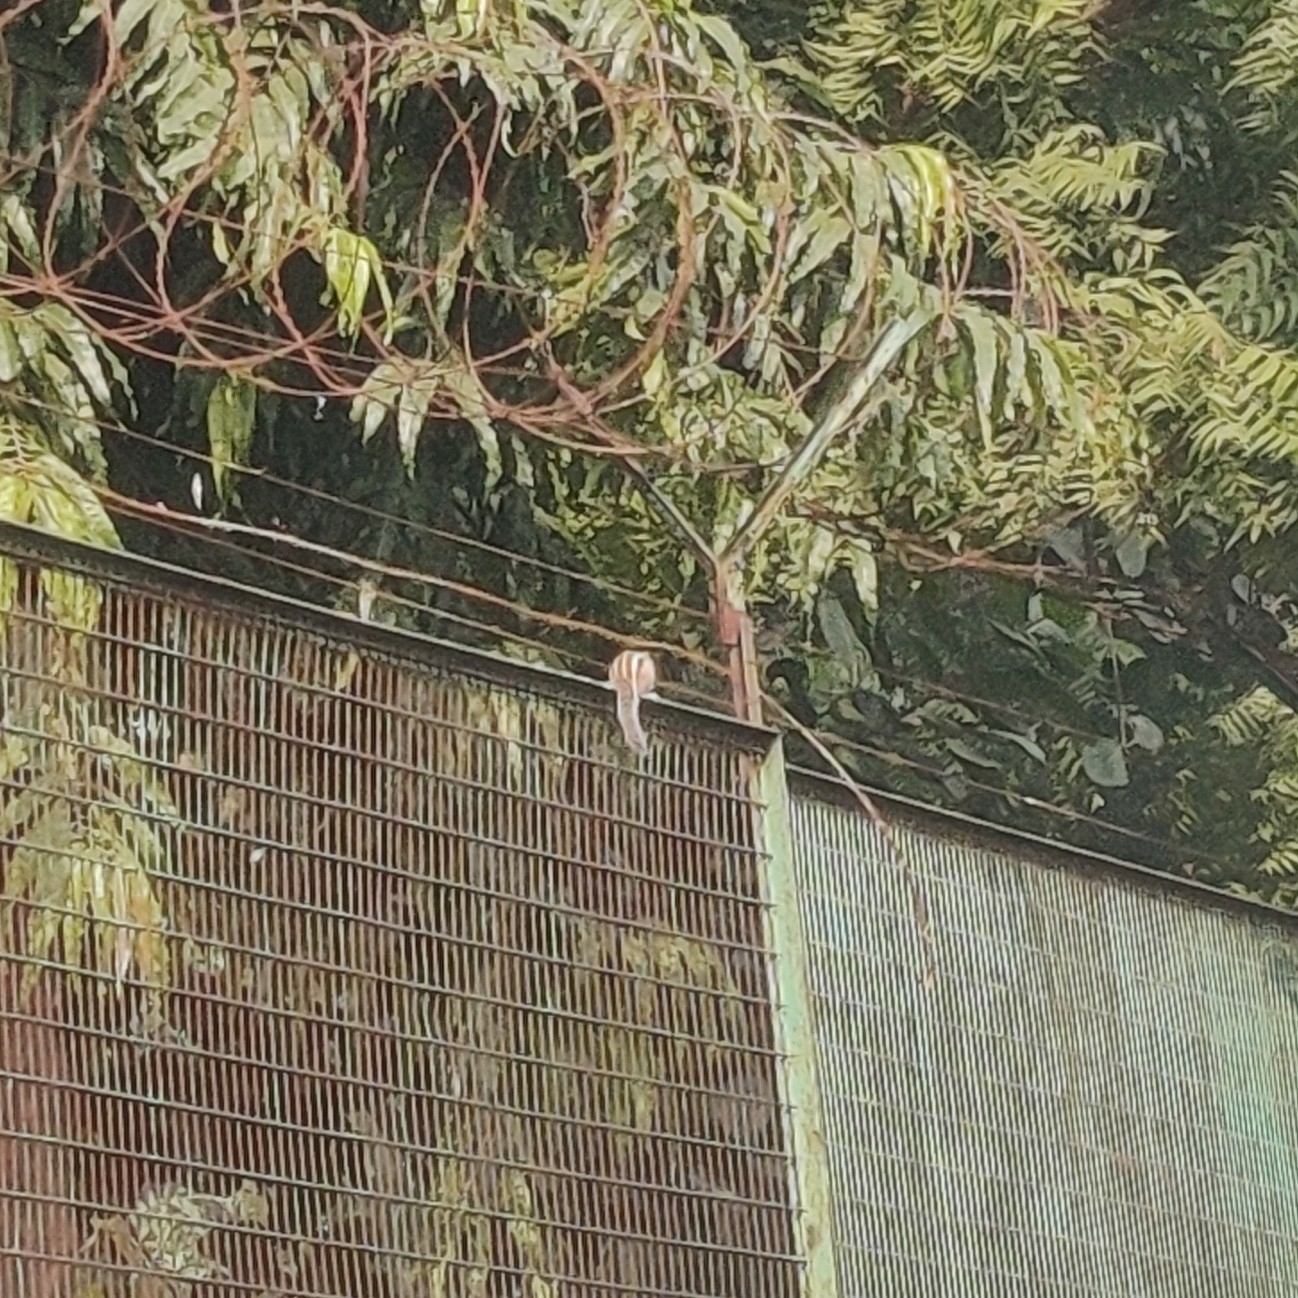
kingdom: Animalia
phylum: Chordata
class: Mammalia
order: Rodentia
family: Sciuridae
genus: Funambulus
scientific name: Funambulus pennantii
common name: Northern palm squirrel
